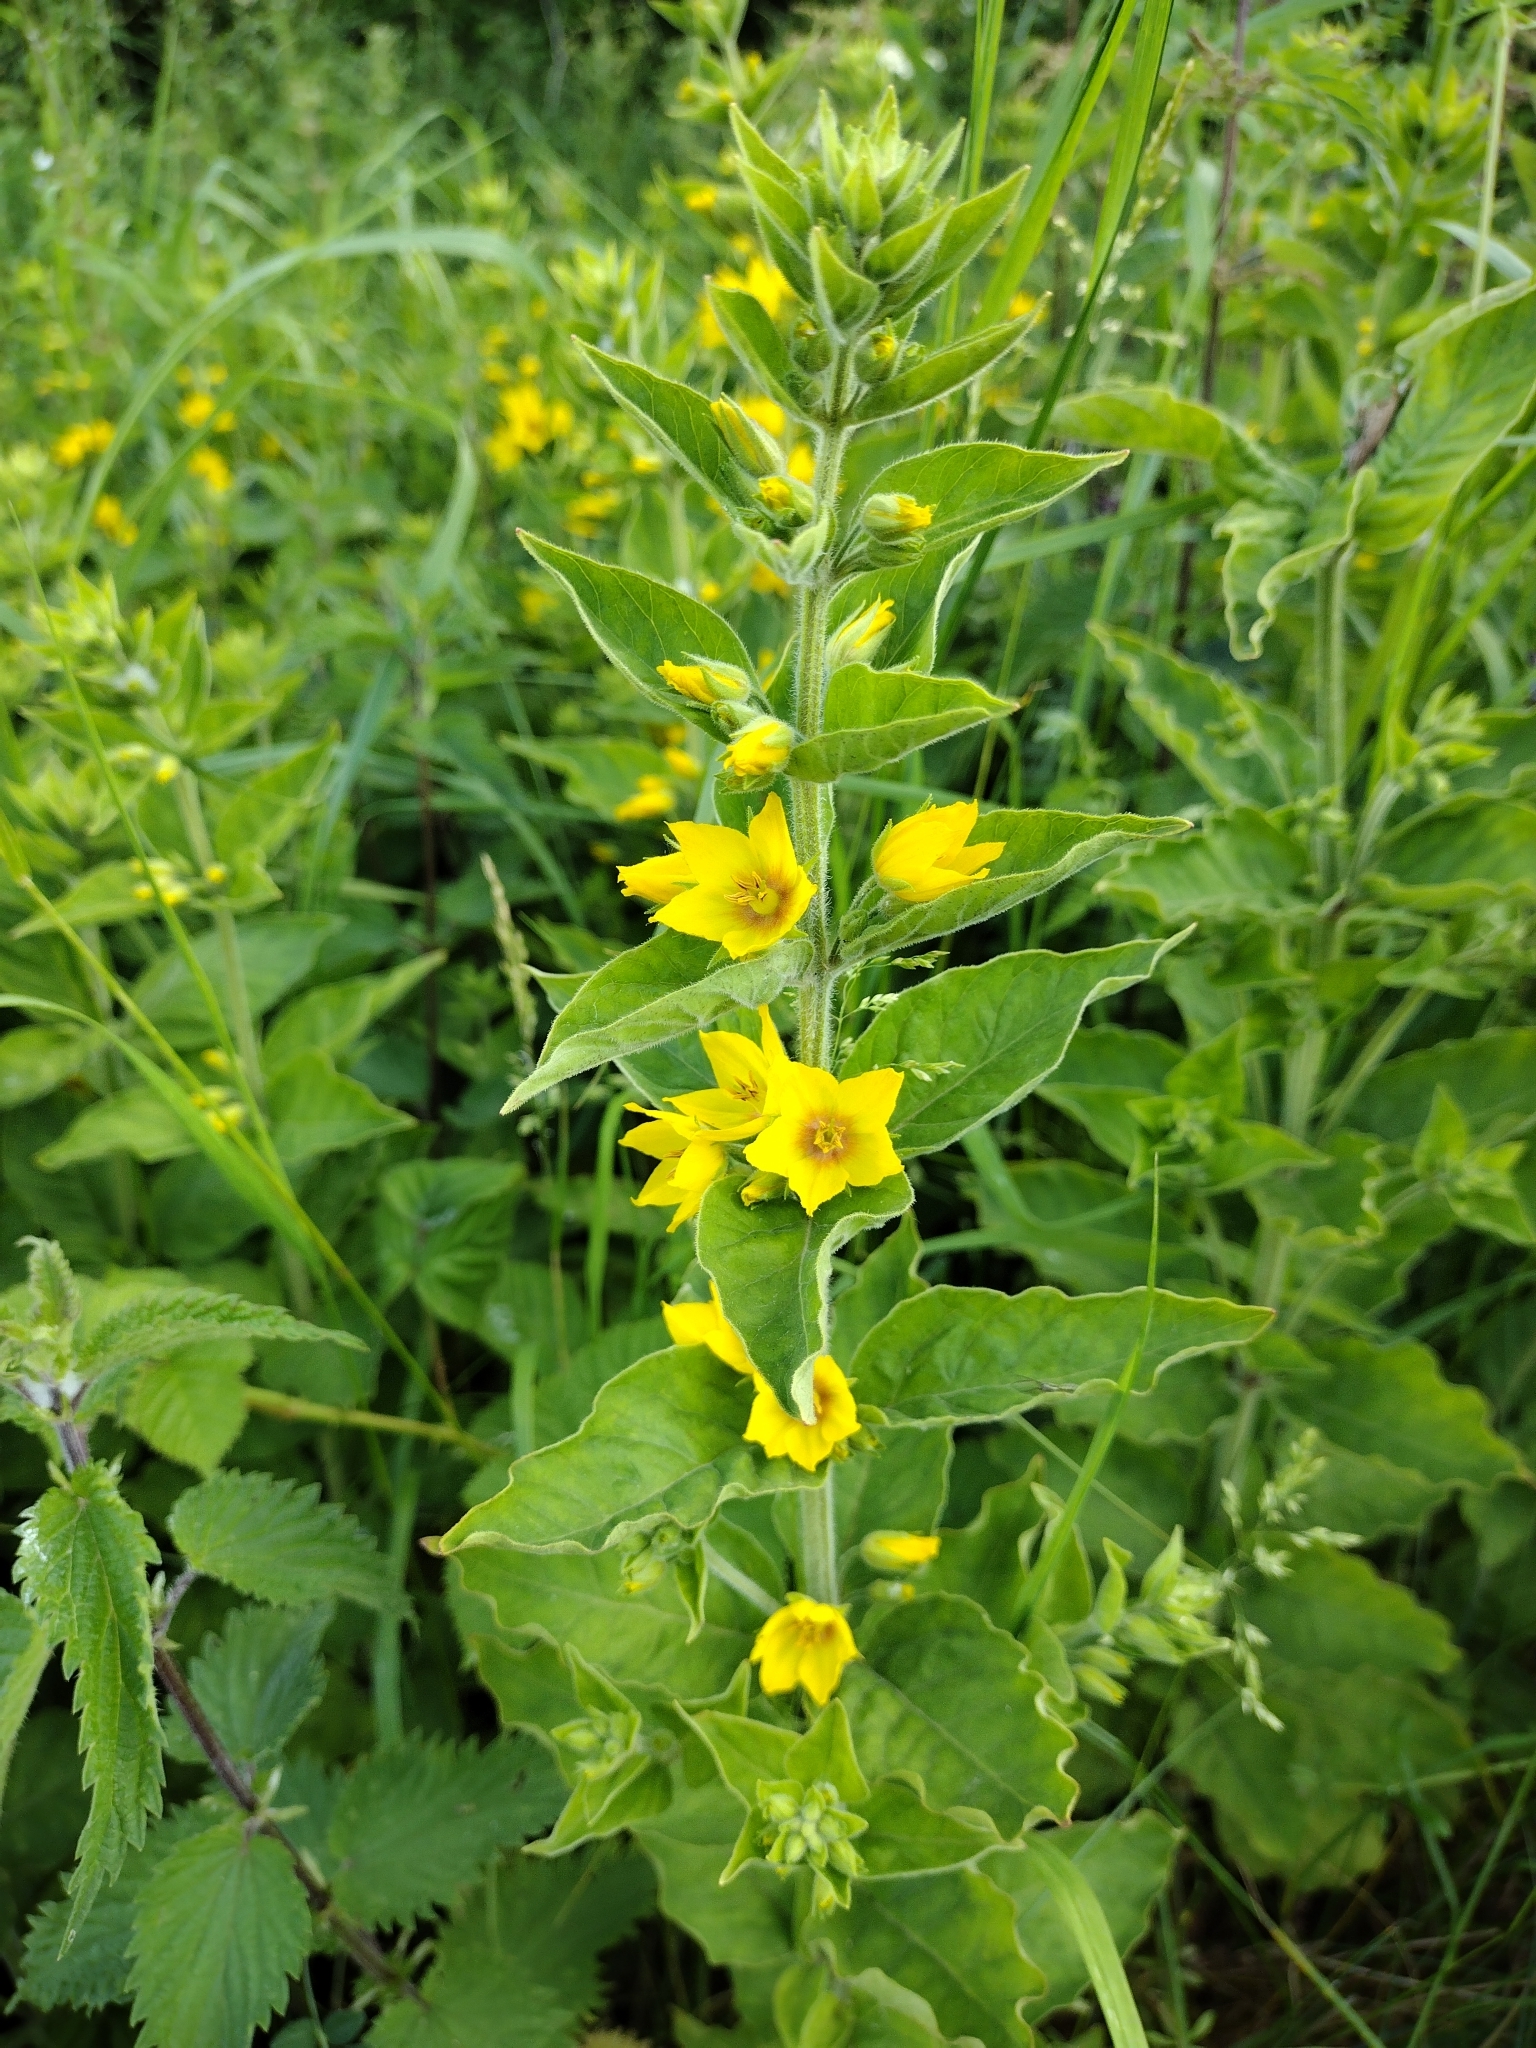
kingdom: Plantae
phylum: Tracheophyta
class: Magnoliopsida
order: Ericales
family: Primulaceae
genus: Lysimachia
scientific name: Lysimachia punctata
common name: Dotted loosestrife
